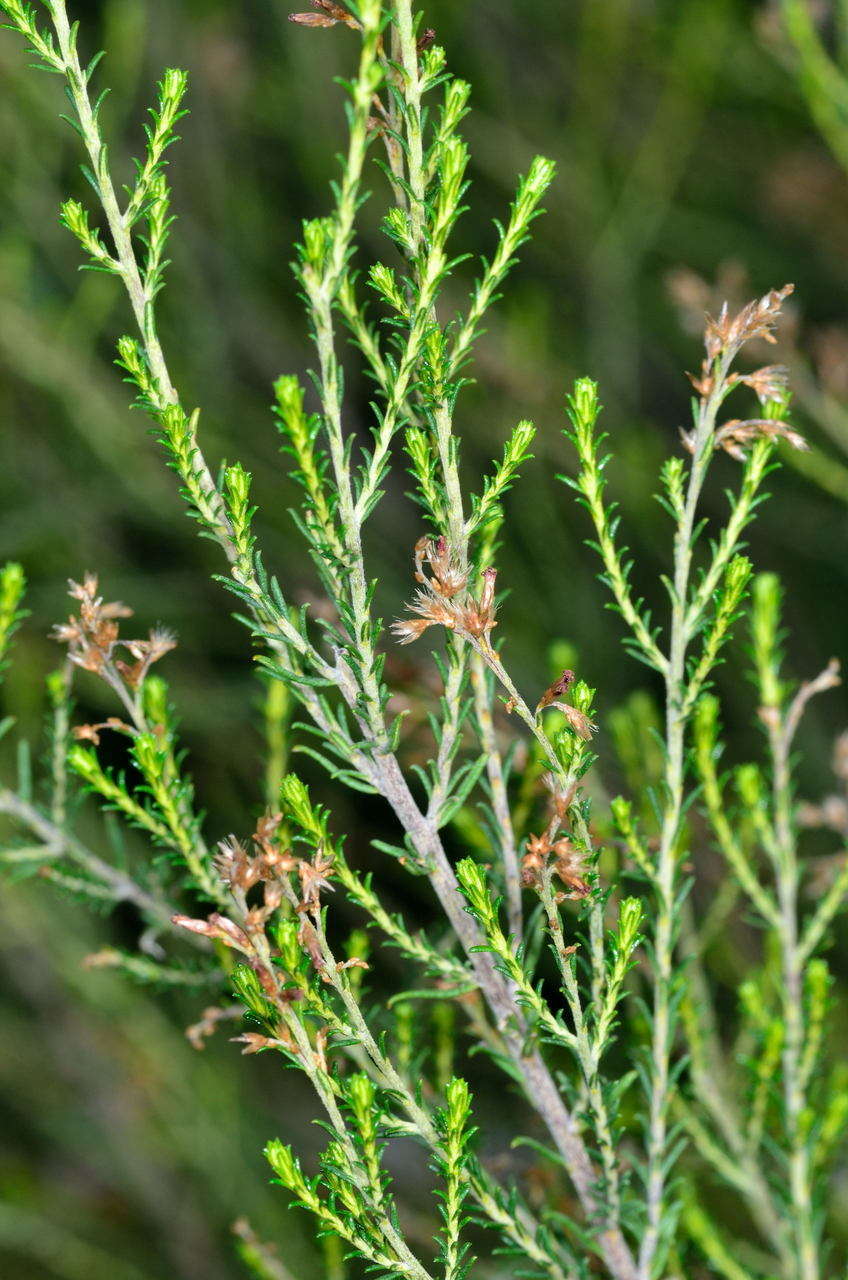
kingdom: Plantae
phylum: Tracheophyta
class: Magnoliopsida
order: Asterales
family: Asteraceae
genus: Cassinia
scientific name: Cassinia sifton
